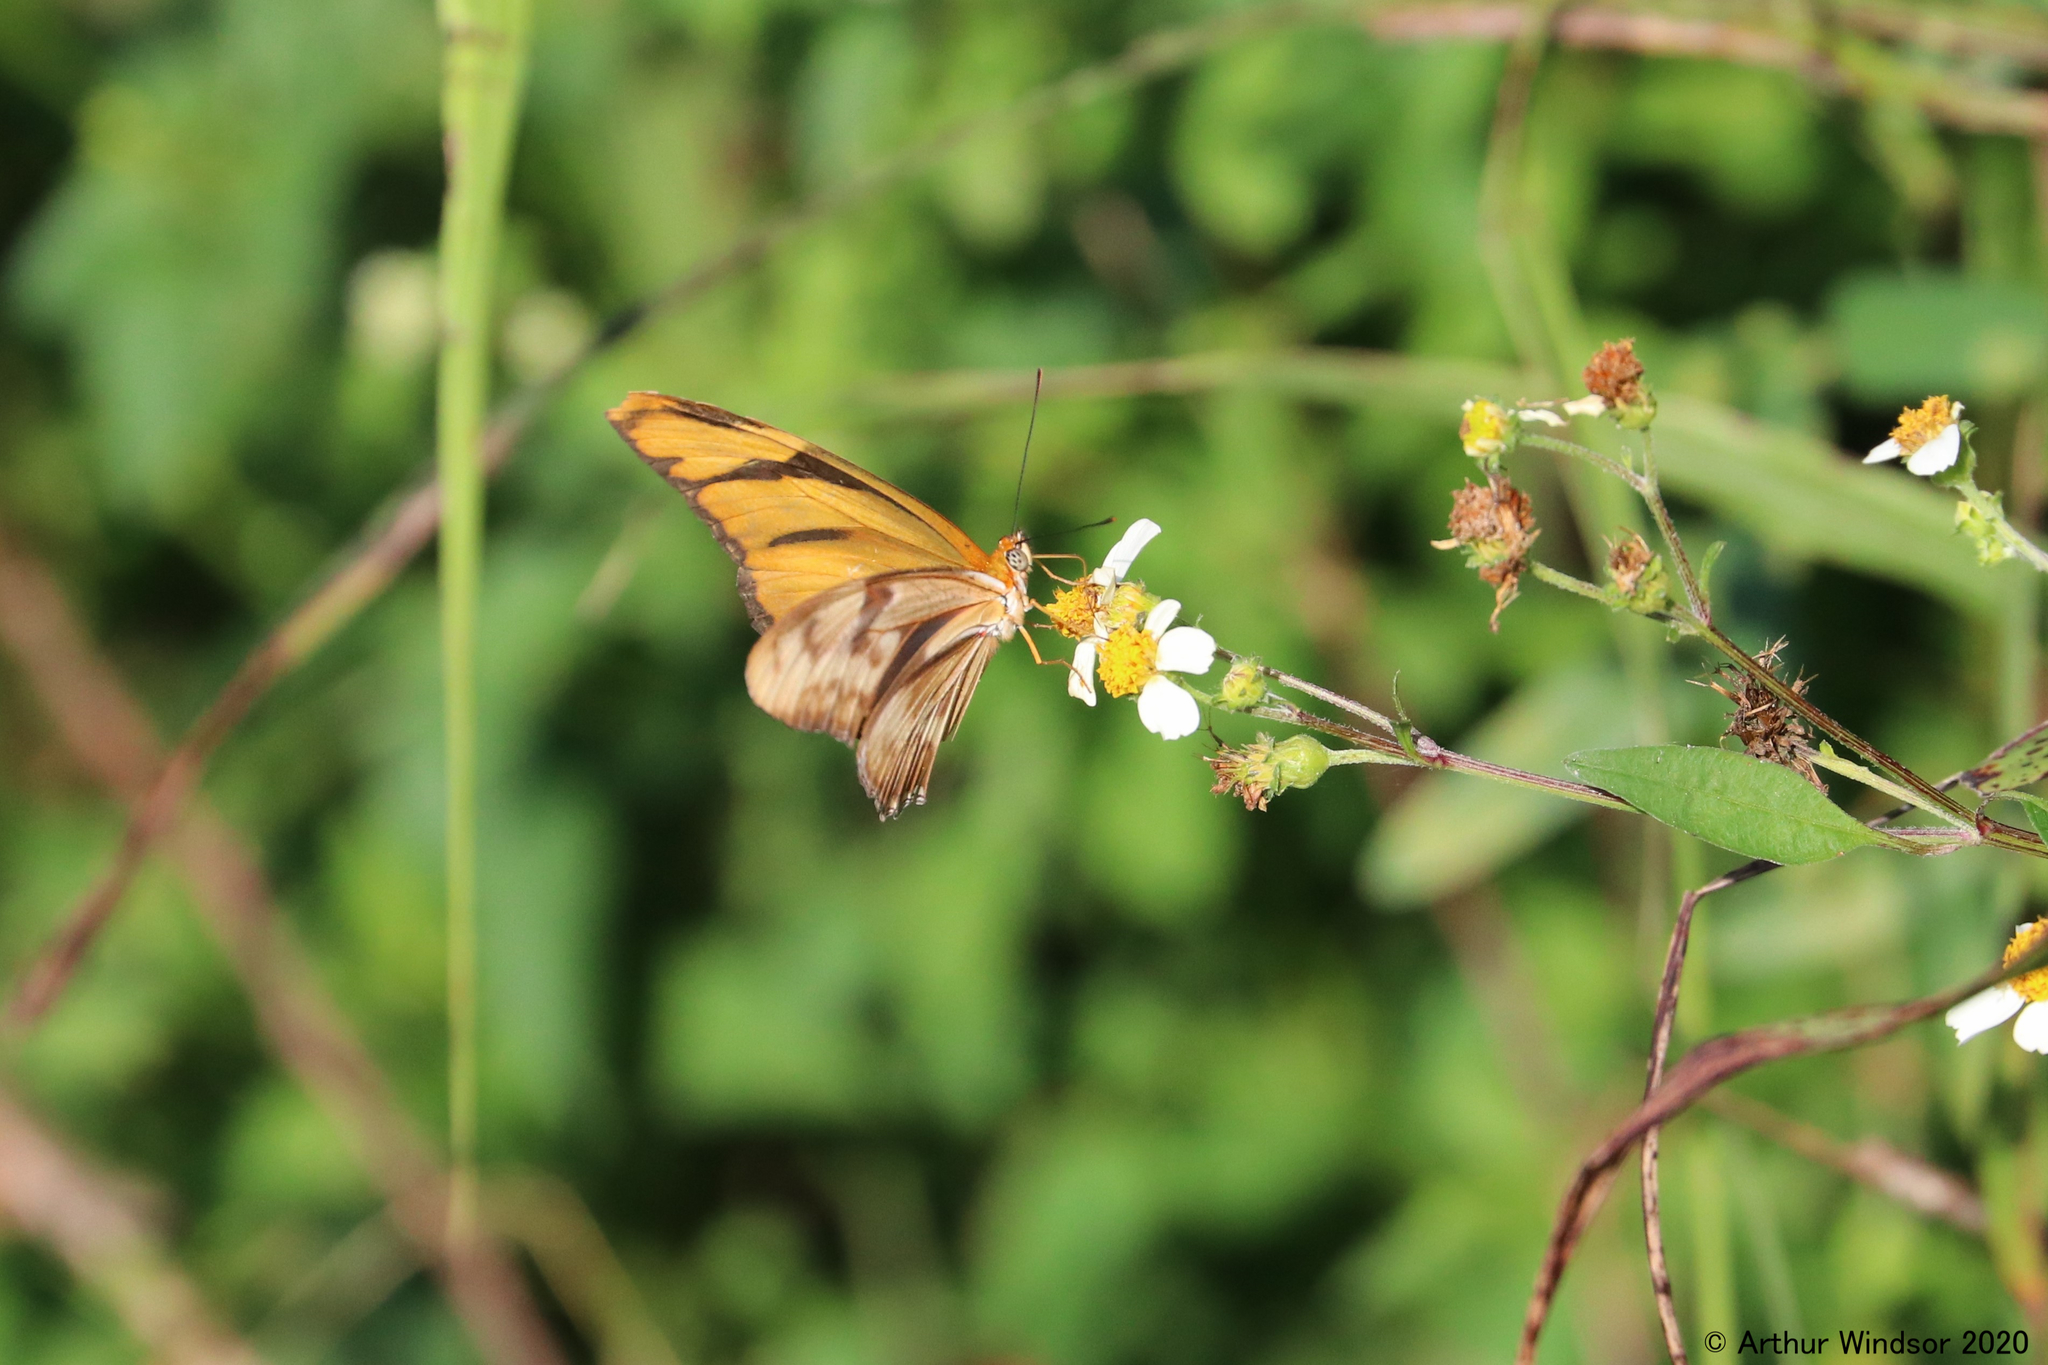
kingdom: Animalia
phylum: Arthropoda
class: Insecta
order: Lepidoptera
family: Nymphalidae
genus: Dryas
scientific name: Dryas iulia
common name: Flambeau
